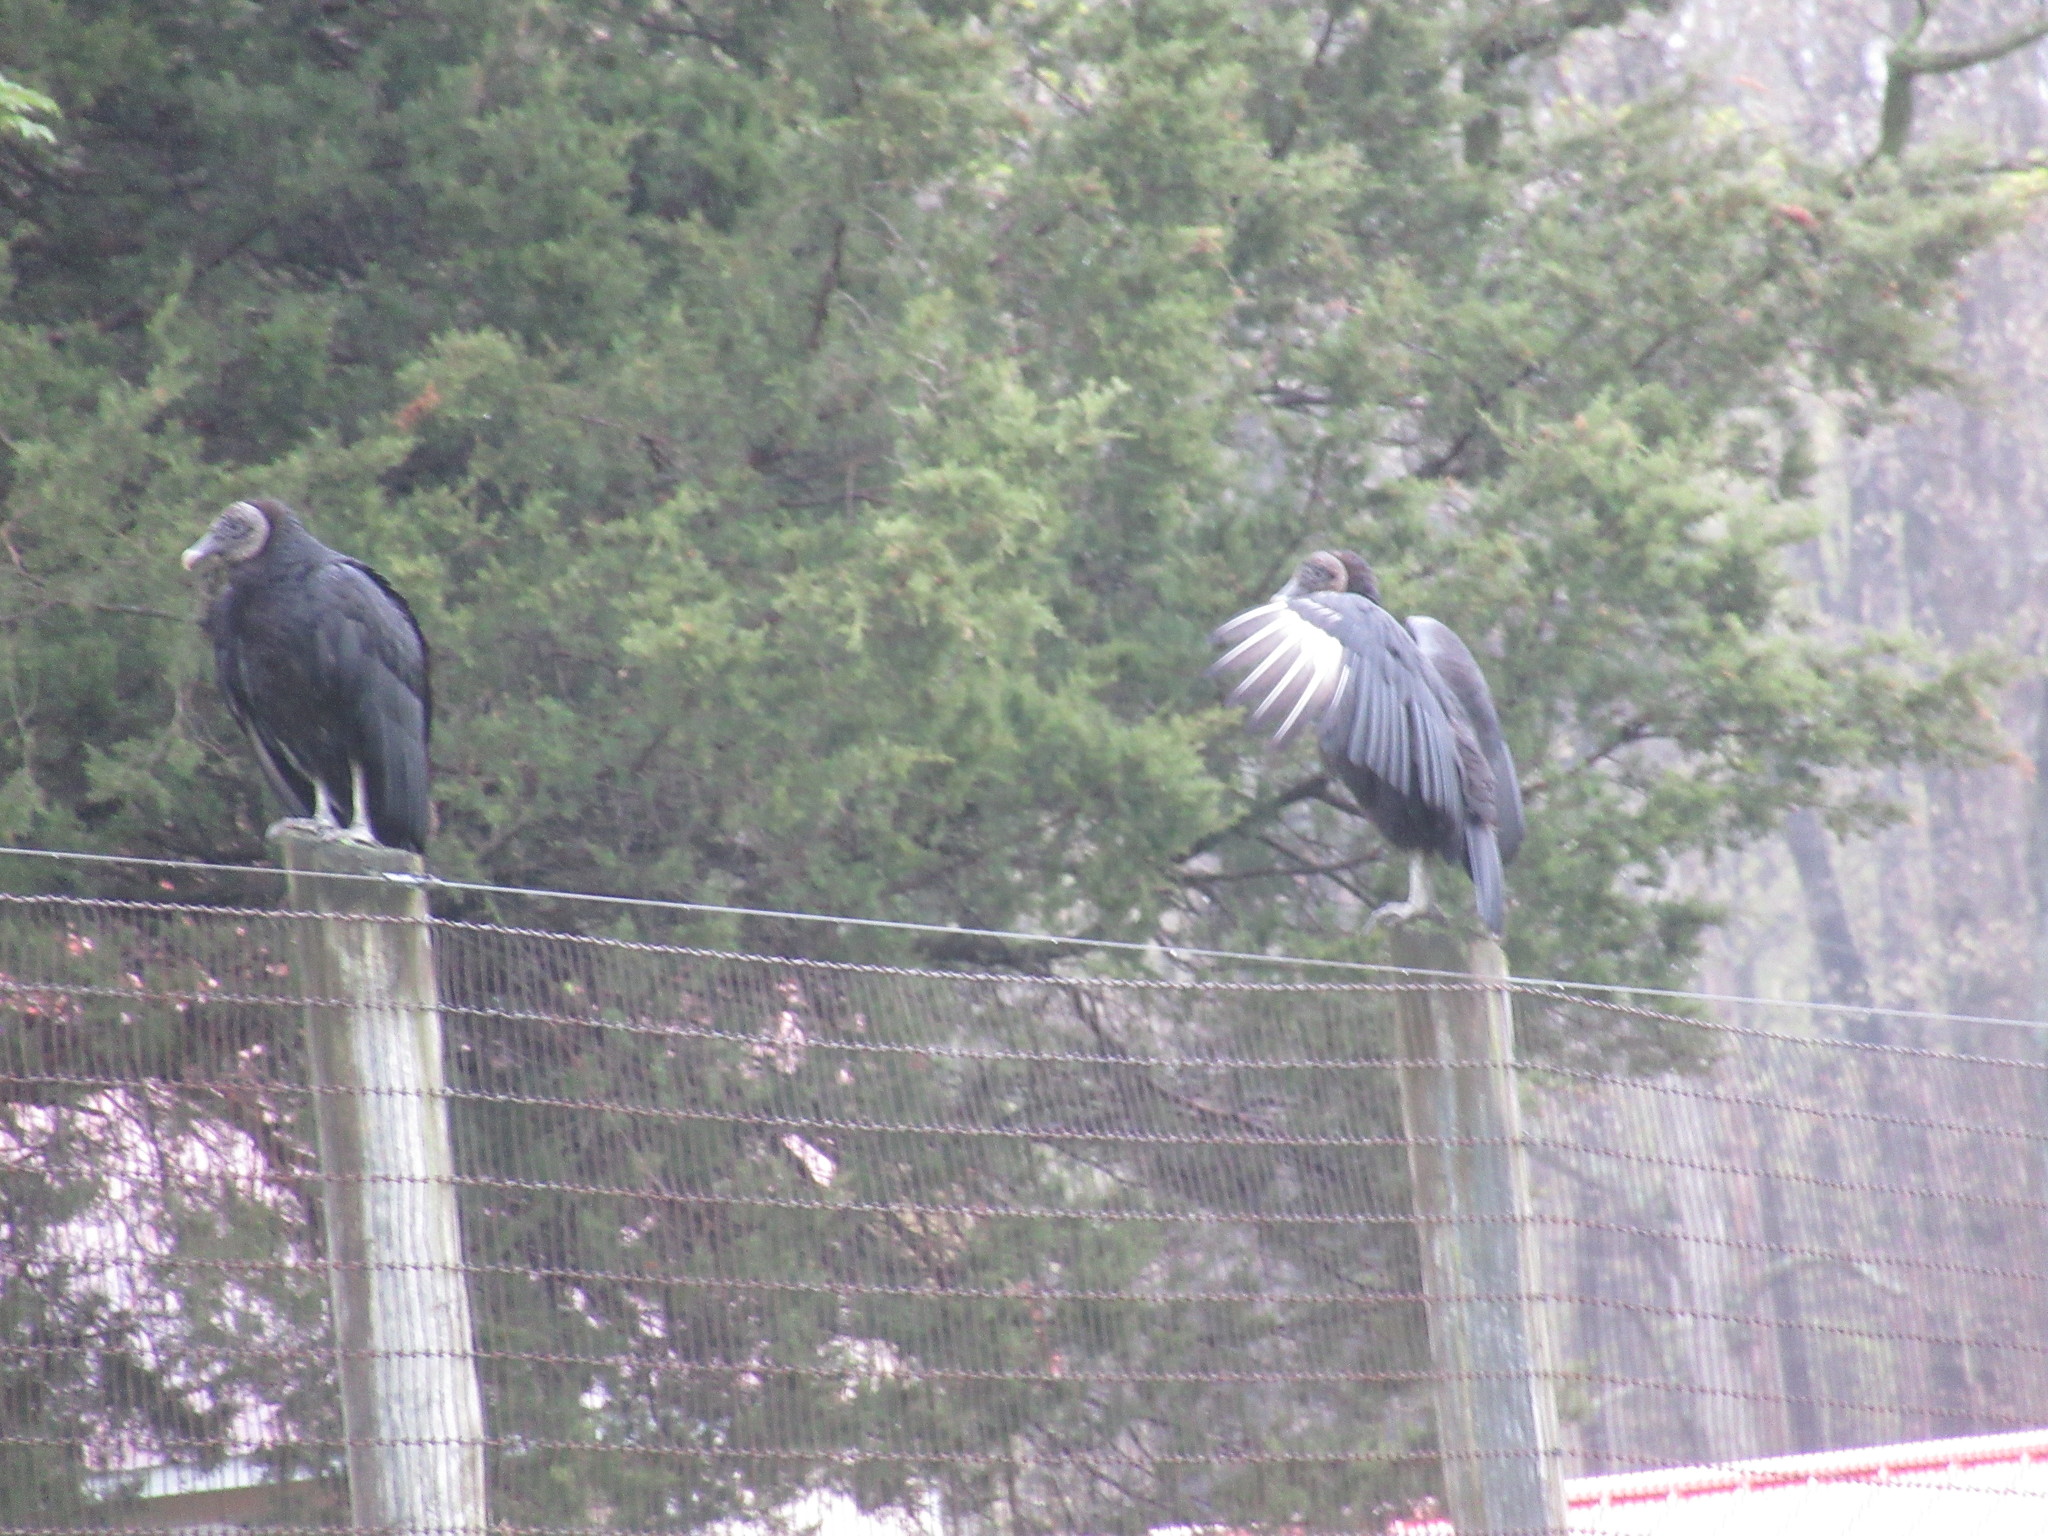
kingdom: Animalia
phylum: Chordata
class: Aves
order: Accipitriformes
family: Cathartidae
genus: Coragyps
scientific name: Coragyps atratus
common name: Black vulture
